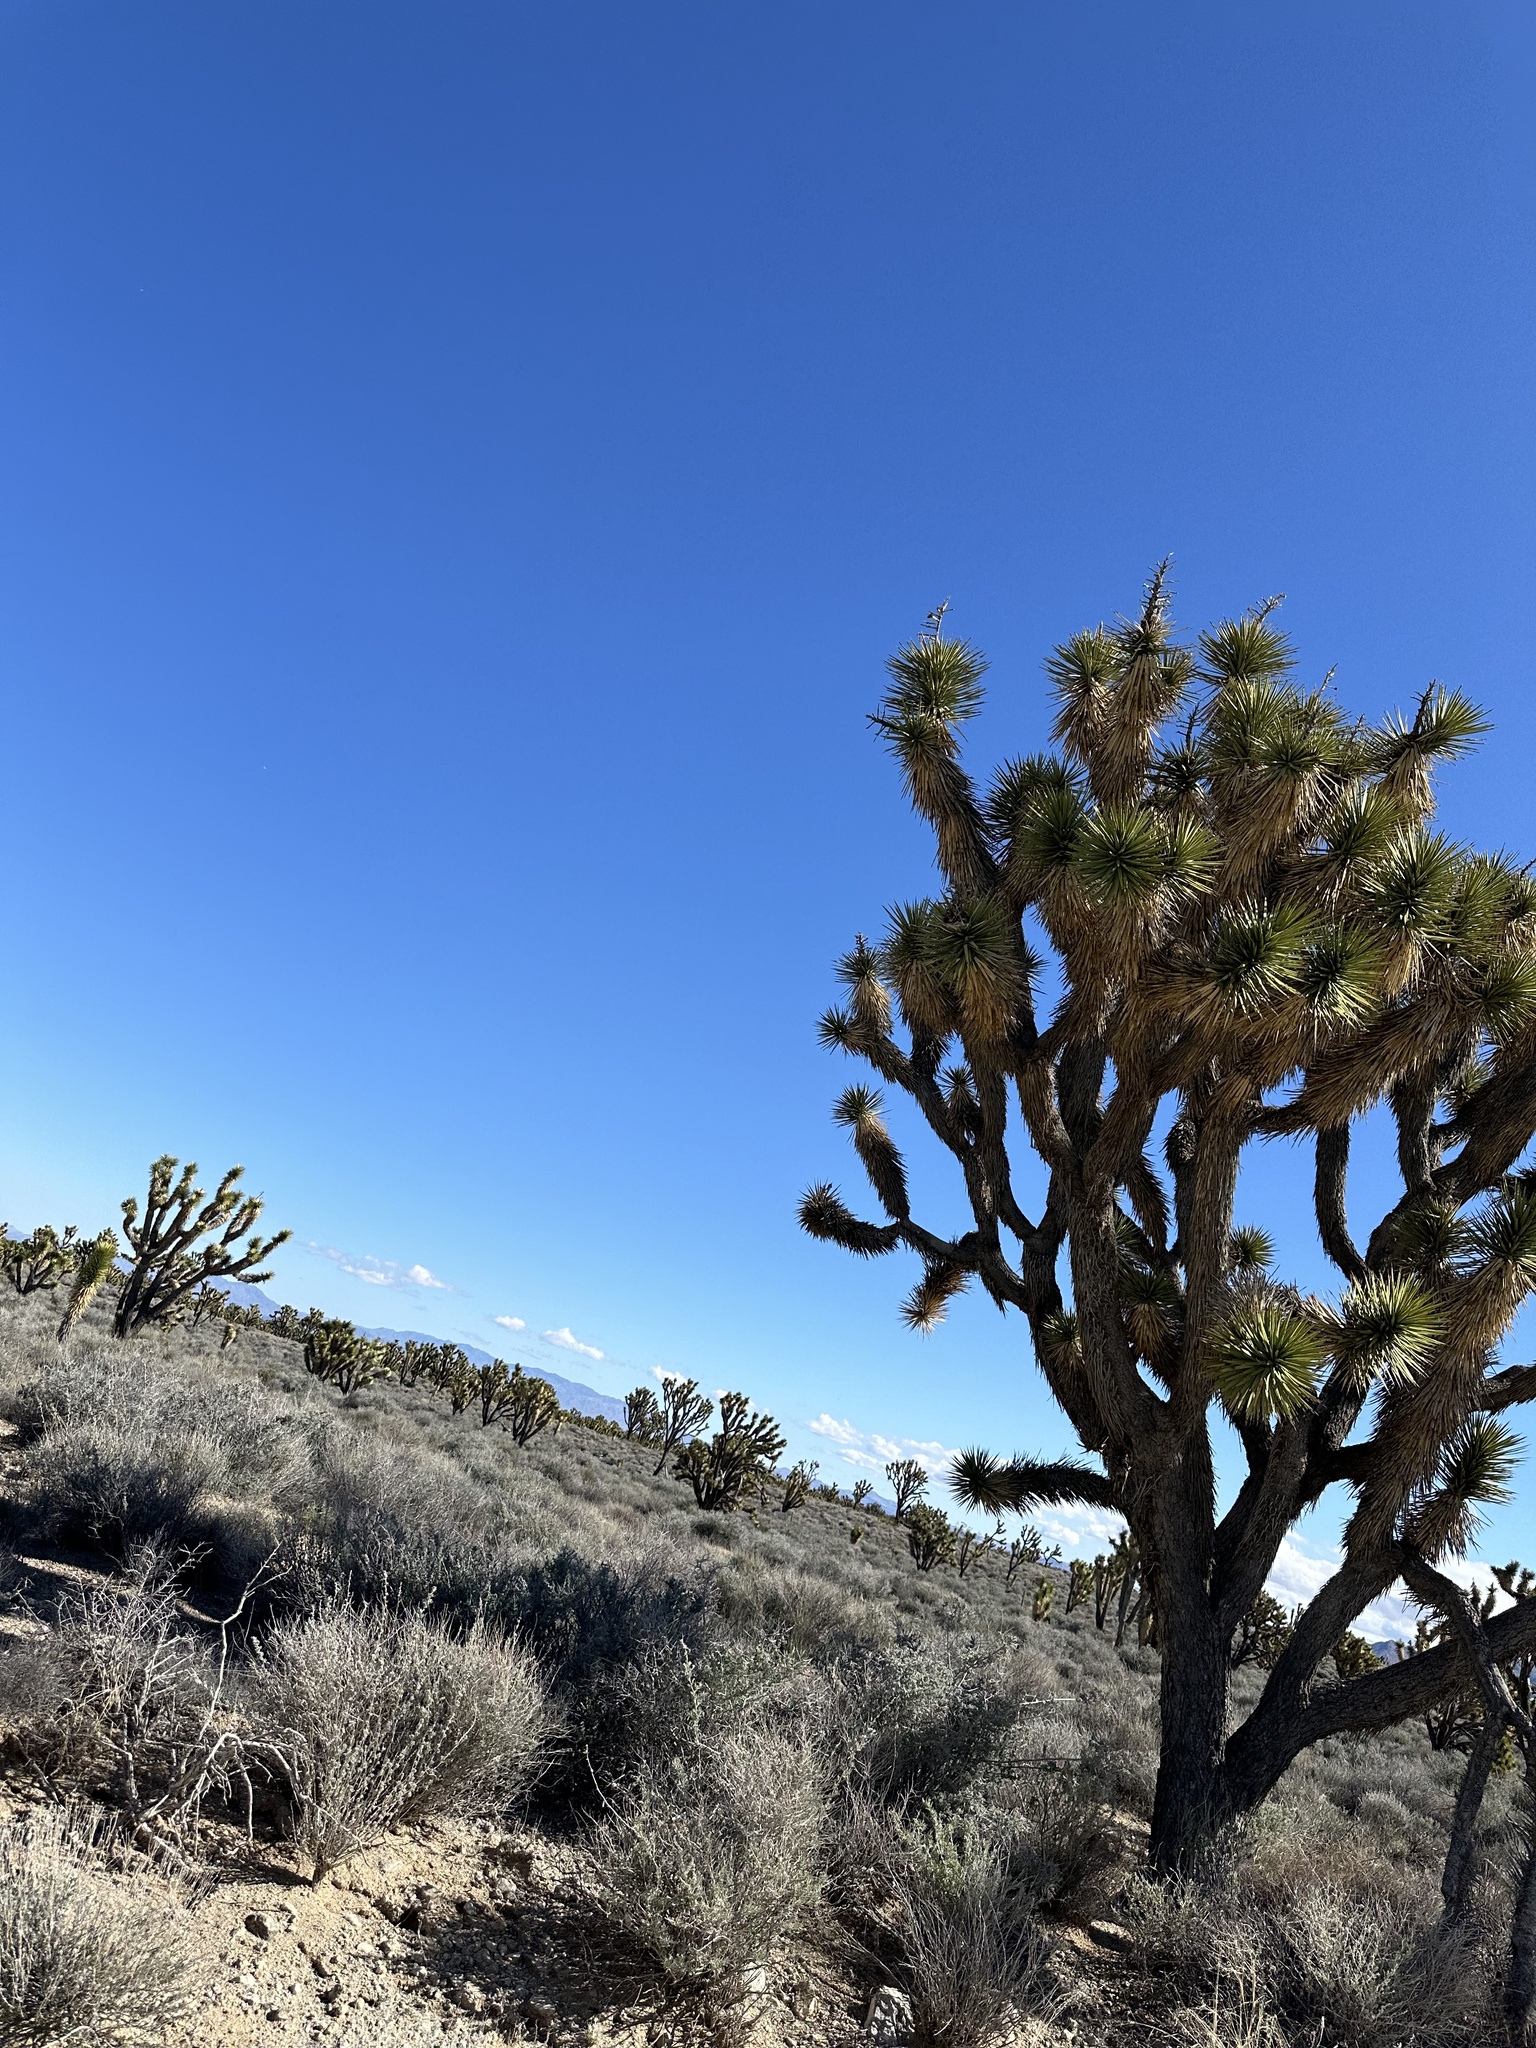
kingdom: Plantae
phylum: Tracheophyta
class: Liliopsida
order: Asparagales
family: Asparagaceae
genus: Yucca
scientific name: Yucca brevifolia
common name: Joshua tree
